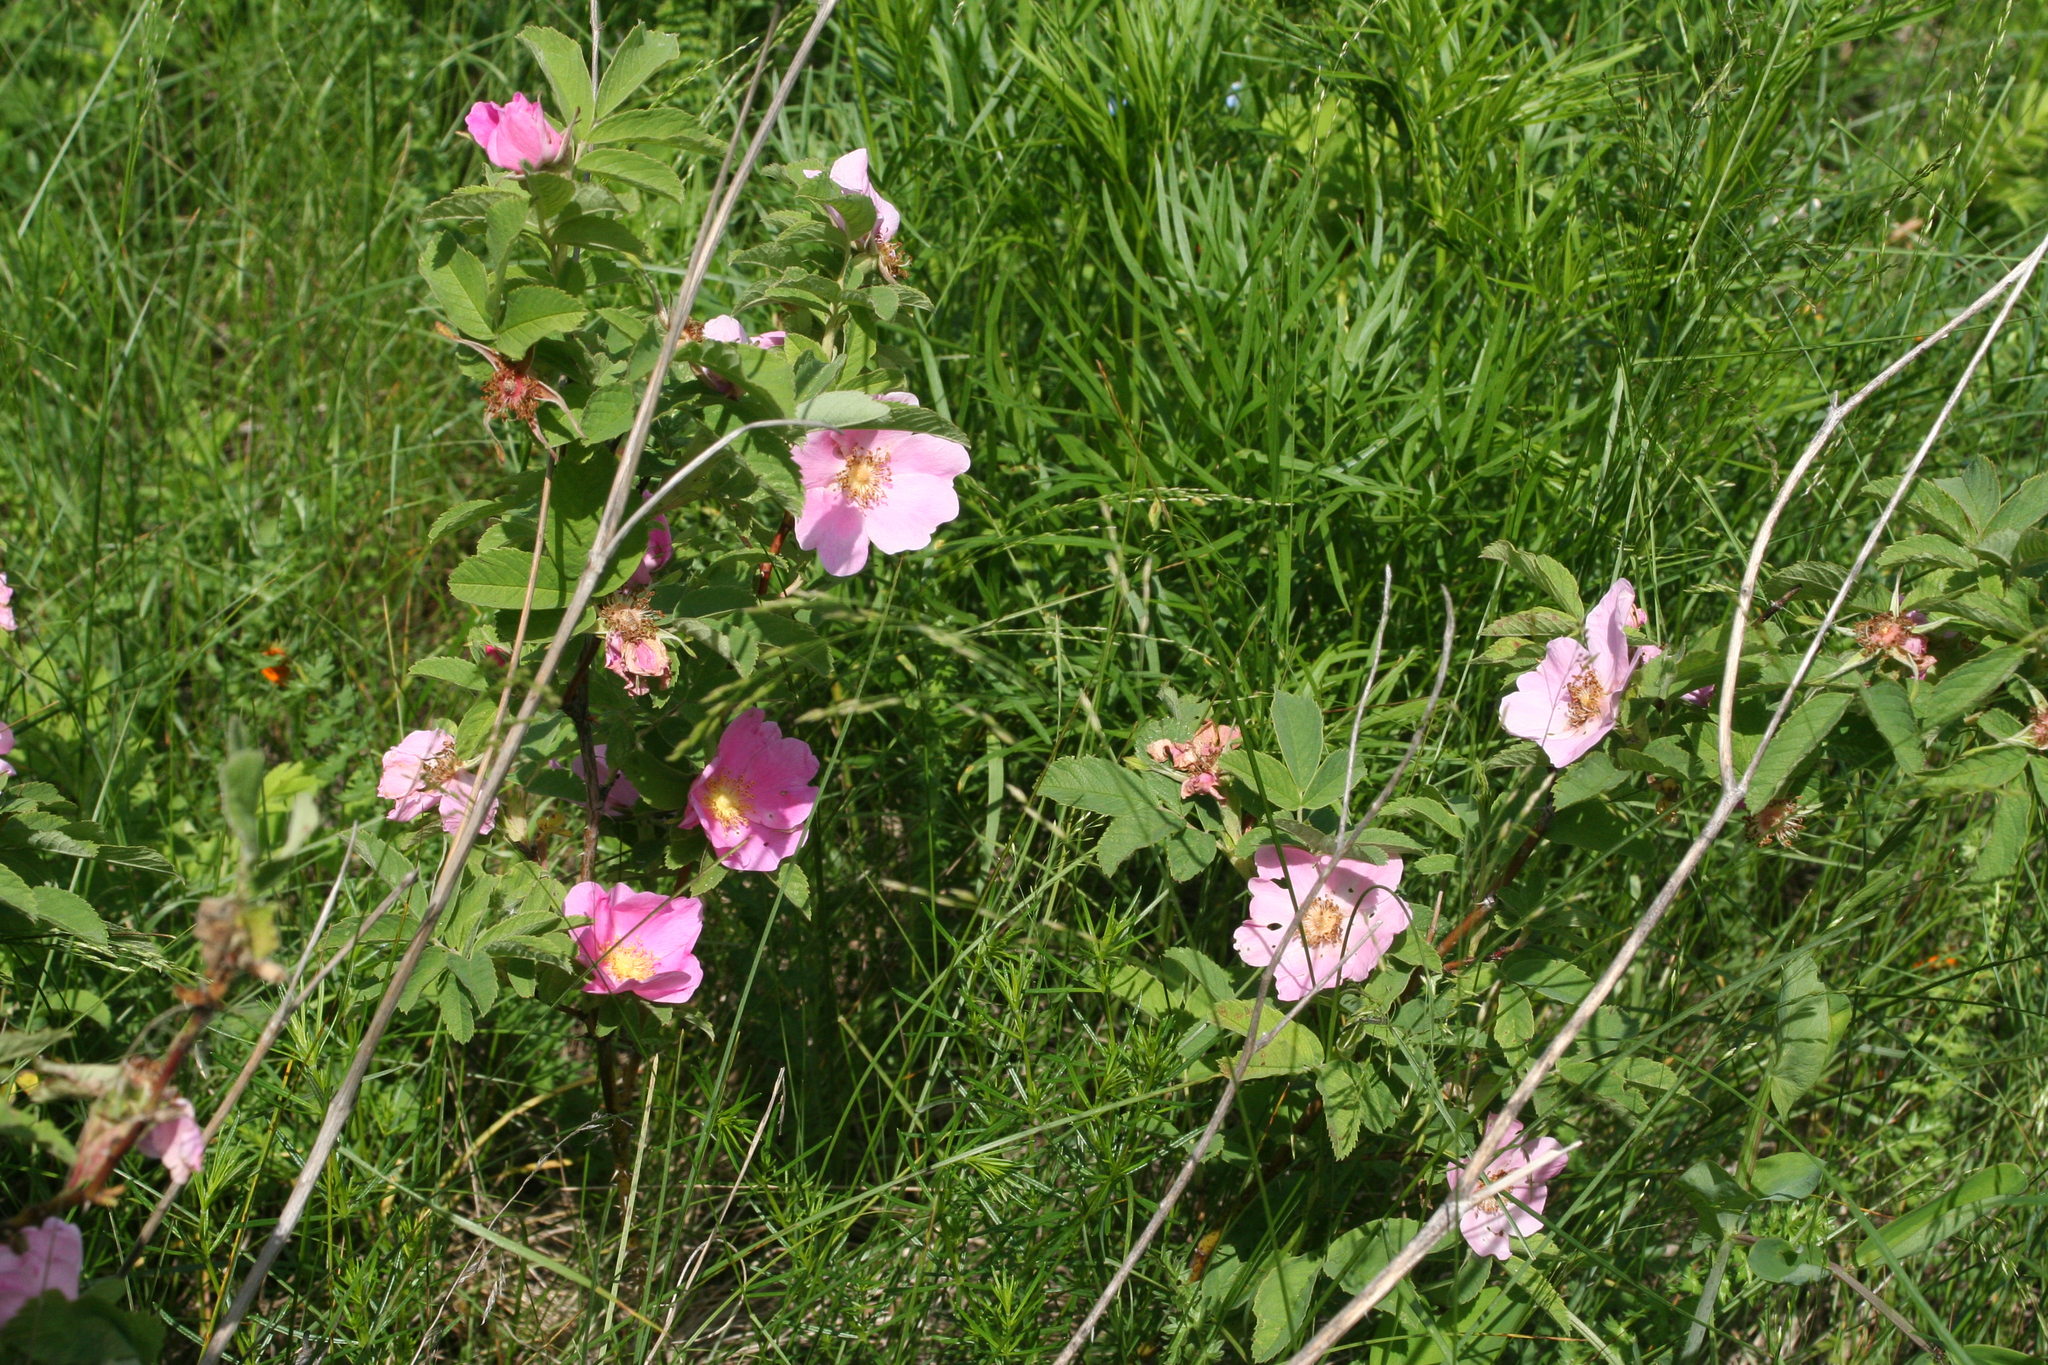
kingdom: Plantae
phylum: Tracheophyta
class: Magnoliopsida
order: Rosales
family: Rosaceae
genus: Rosa
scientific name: Rosa majalis
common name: Cinnamon rose
